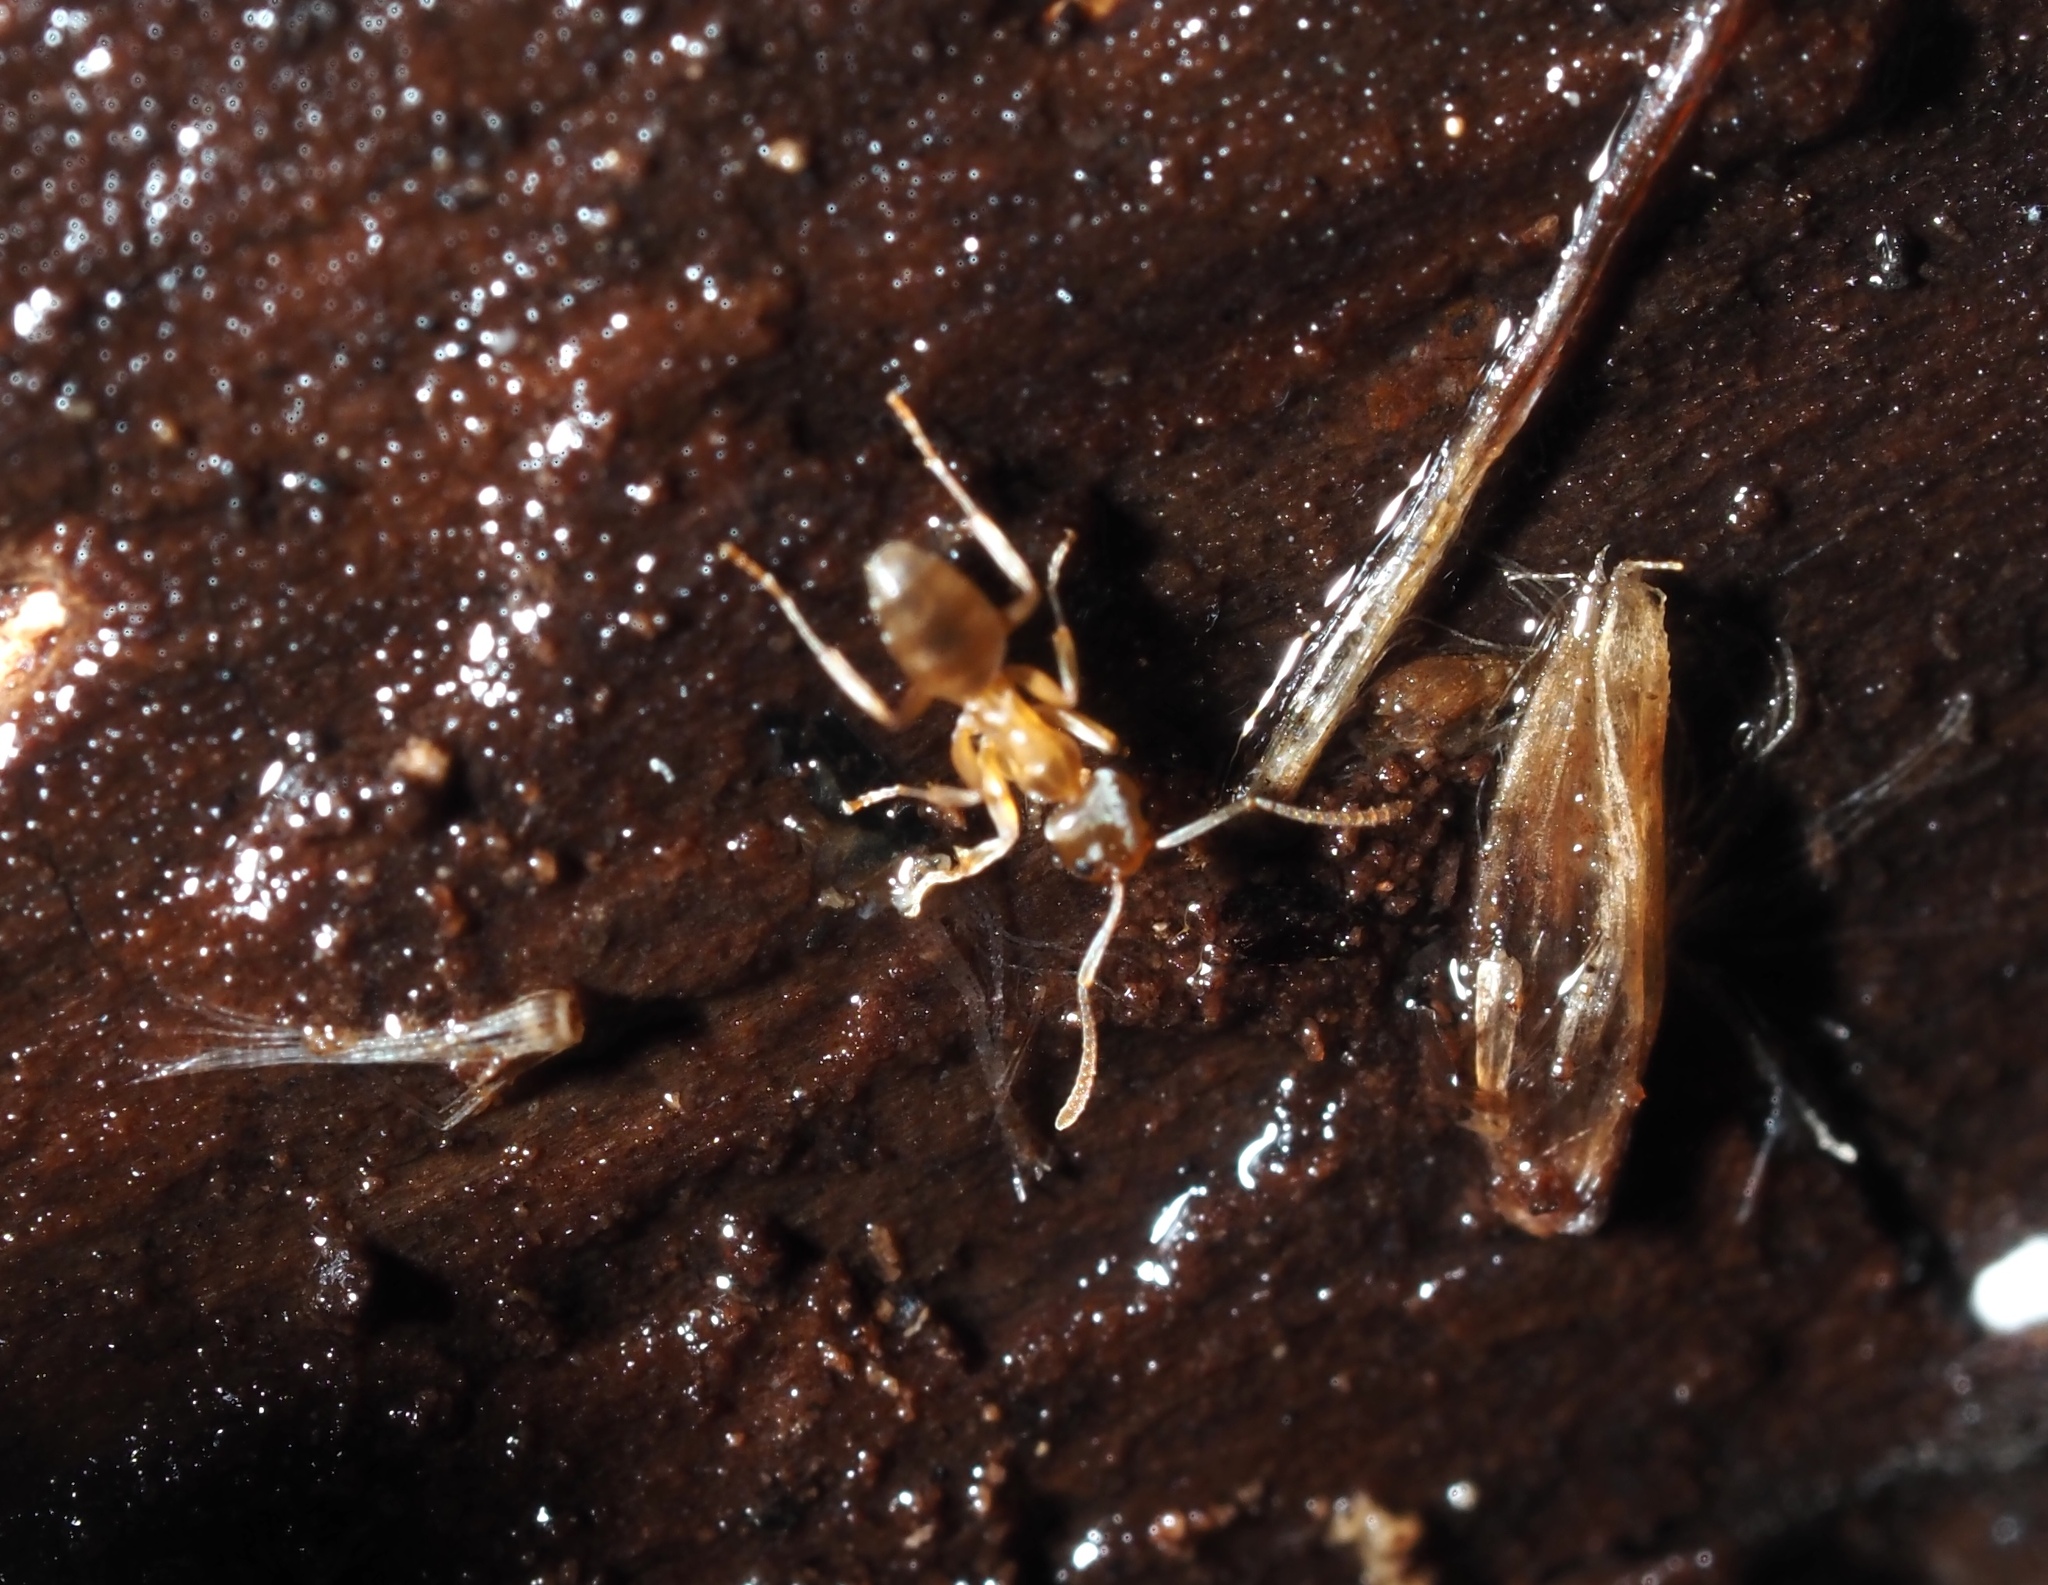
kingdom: Animalia
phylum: Arthropoda
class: Insecta
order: Hymenoptera
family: Formicidae
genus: Tapinoma
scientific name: Tapinoma sessile
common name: Odorous house ant
